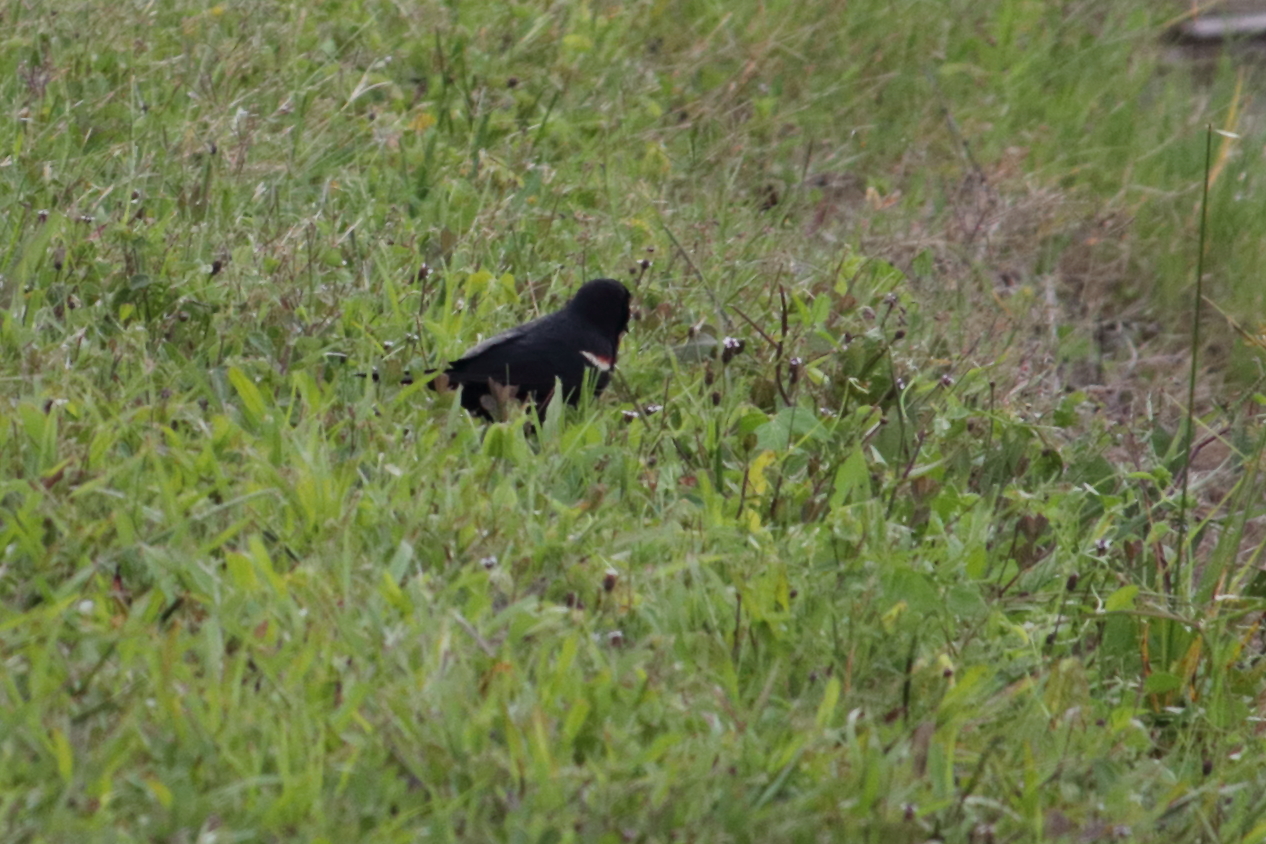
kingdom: Animalia
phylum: Chordata
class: Aves
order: Passeriformes
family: Icteridae
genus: Agelaius
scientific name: Agelaius phoeniceus
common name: Red-winged blackbird
